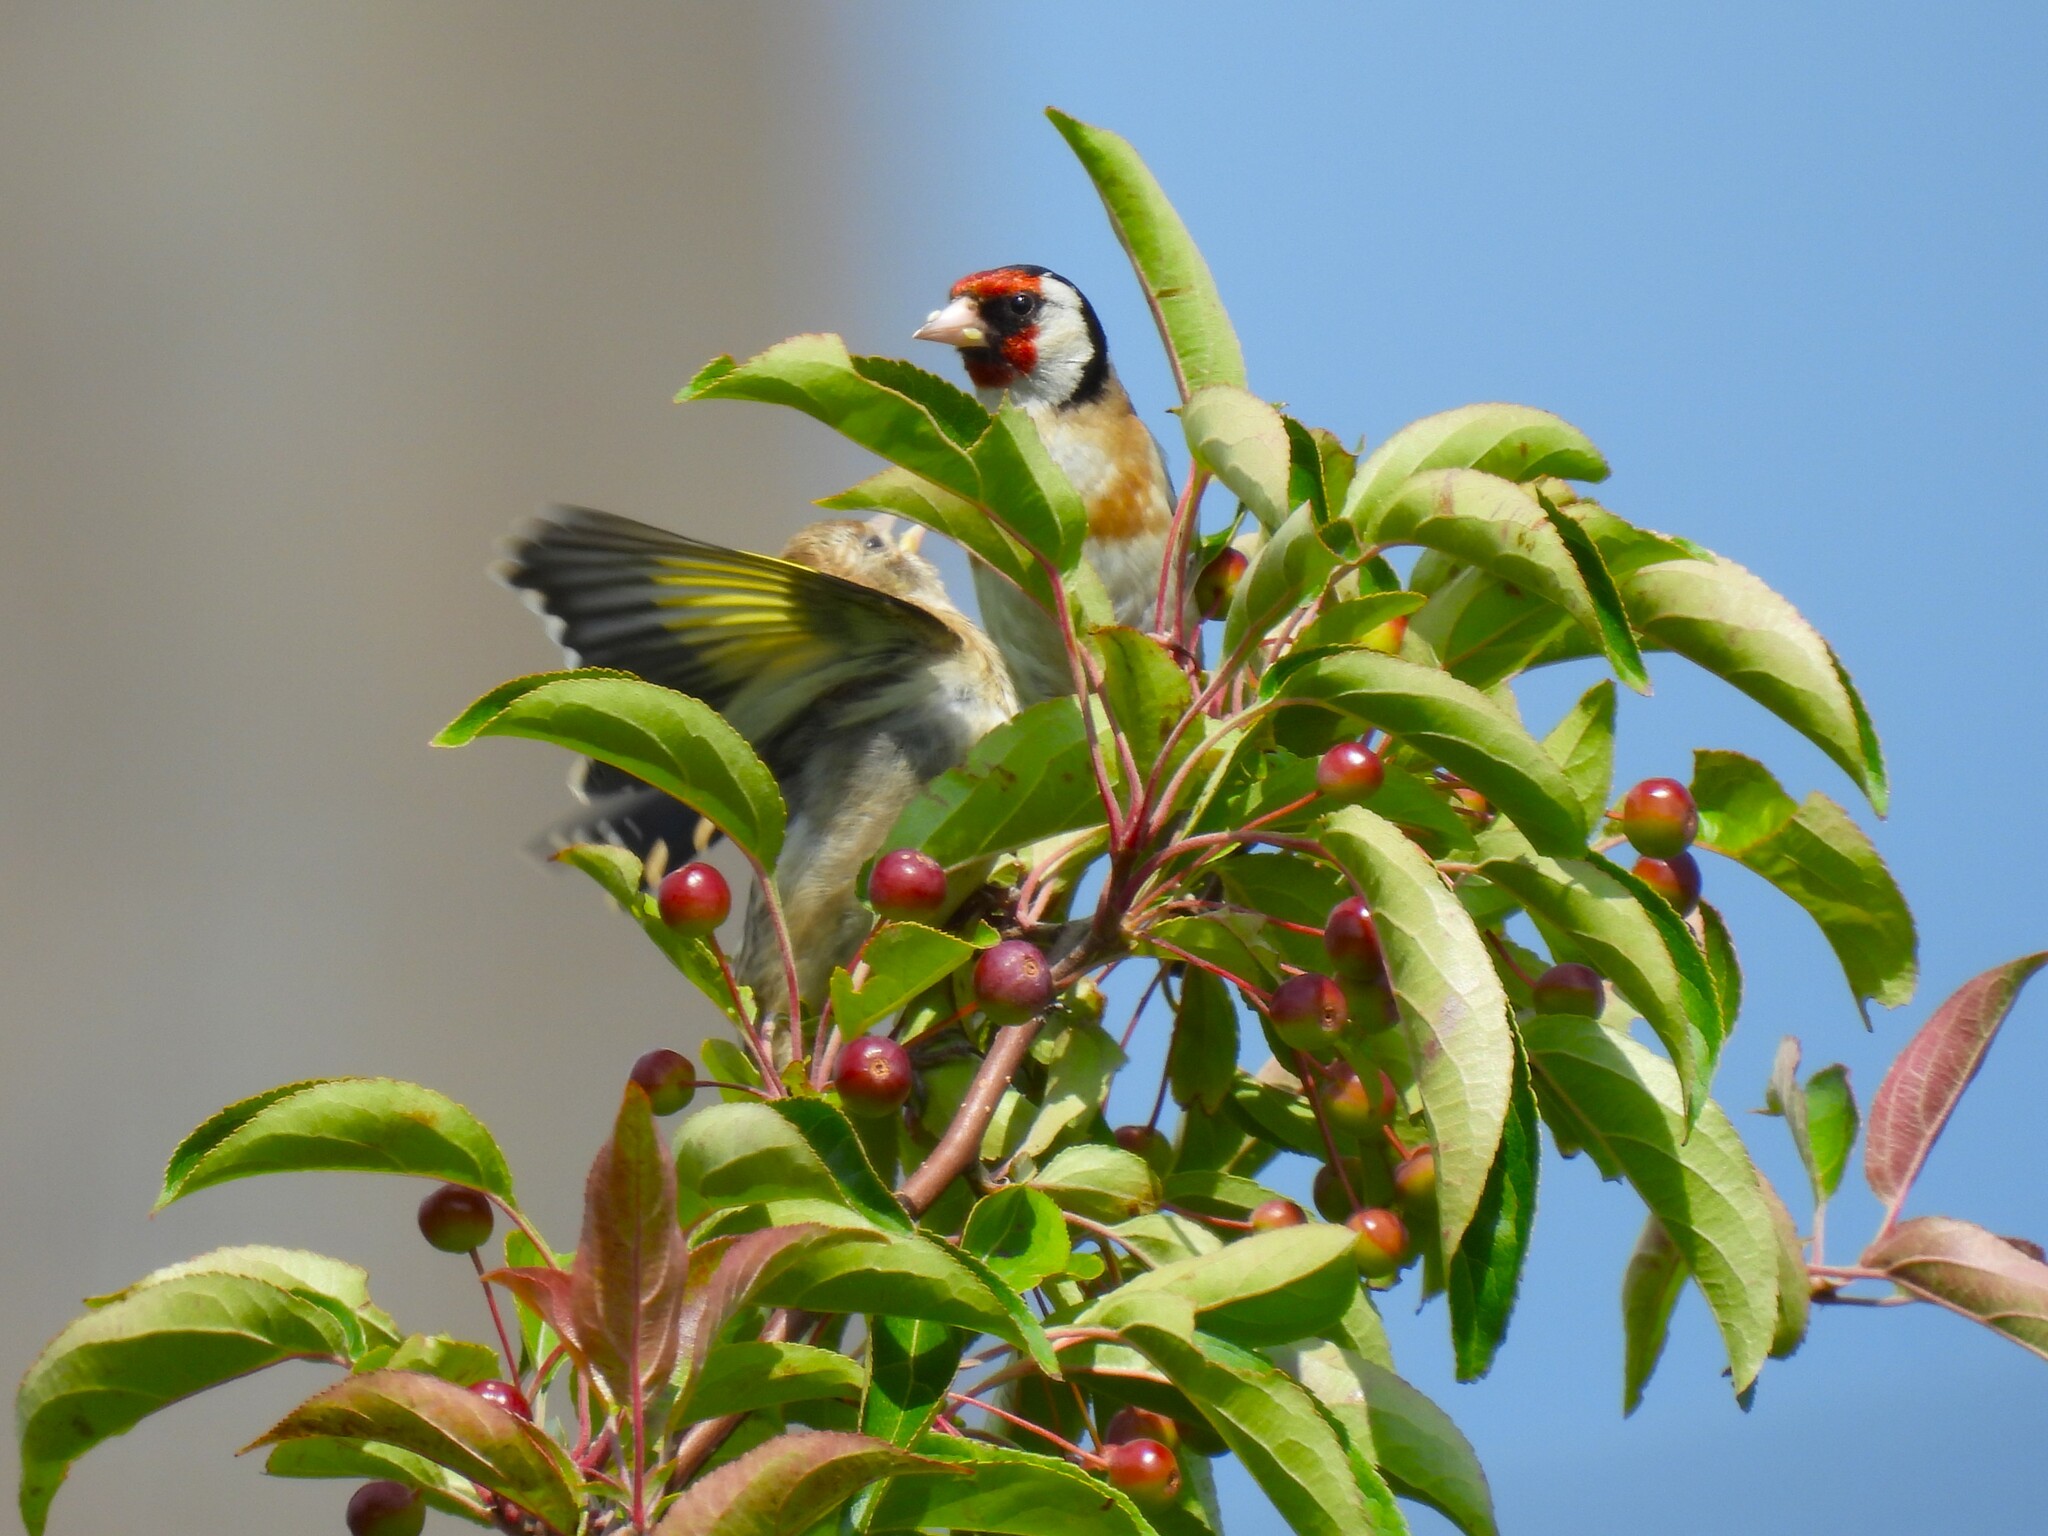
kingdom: Animalia
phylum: Chordata
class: Aves
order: Passeriformes
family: Fringillidae
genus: Carduelis
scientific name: Carduelis carduelis
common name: European goldfinch
